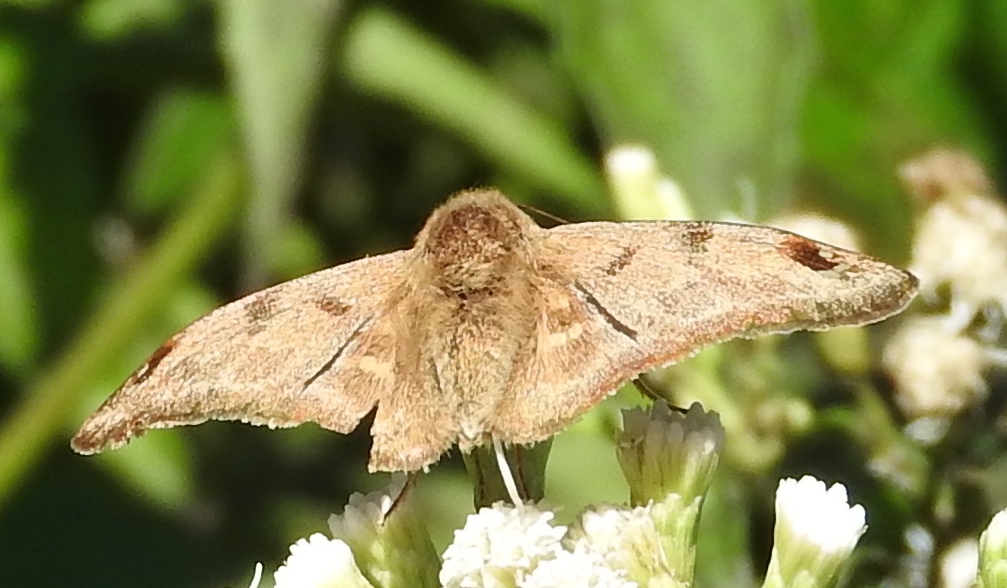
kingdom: Animalia
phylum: Arthropoda
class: Insecta
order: Lepidoptera
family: Hesperiidae
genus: Arteurotia
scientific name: Arteurotia tractipennis
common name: Starred skipper
